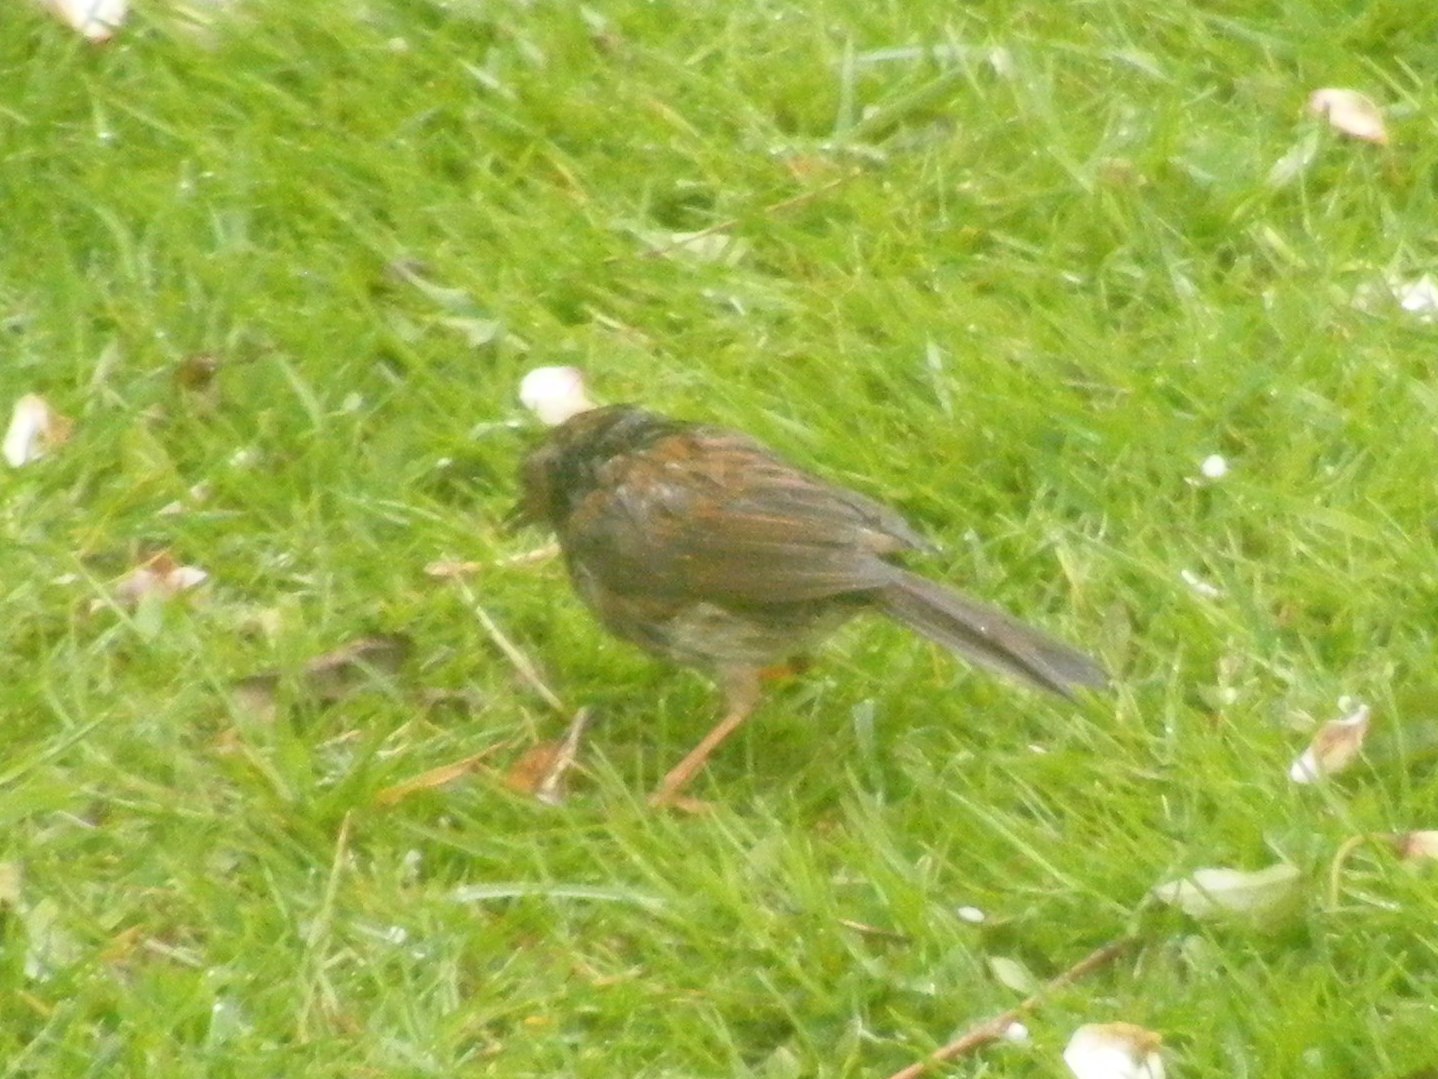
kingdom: Animalia
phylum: Chordata
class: Aves
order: Passeriformes
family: Prunellidae
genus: Prunella
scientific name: Prunella modularis
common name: Dunnock
